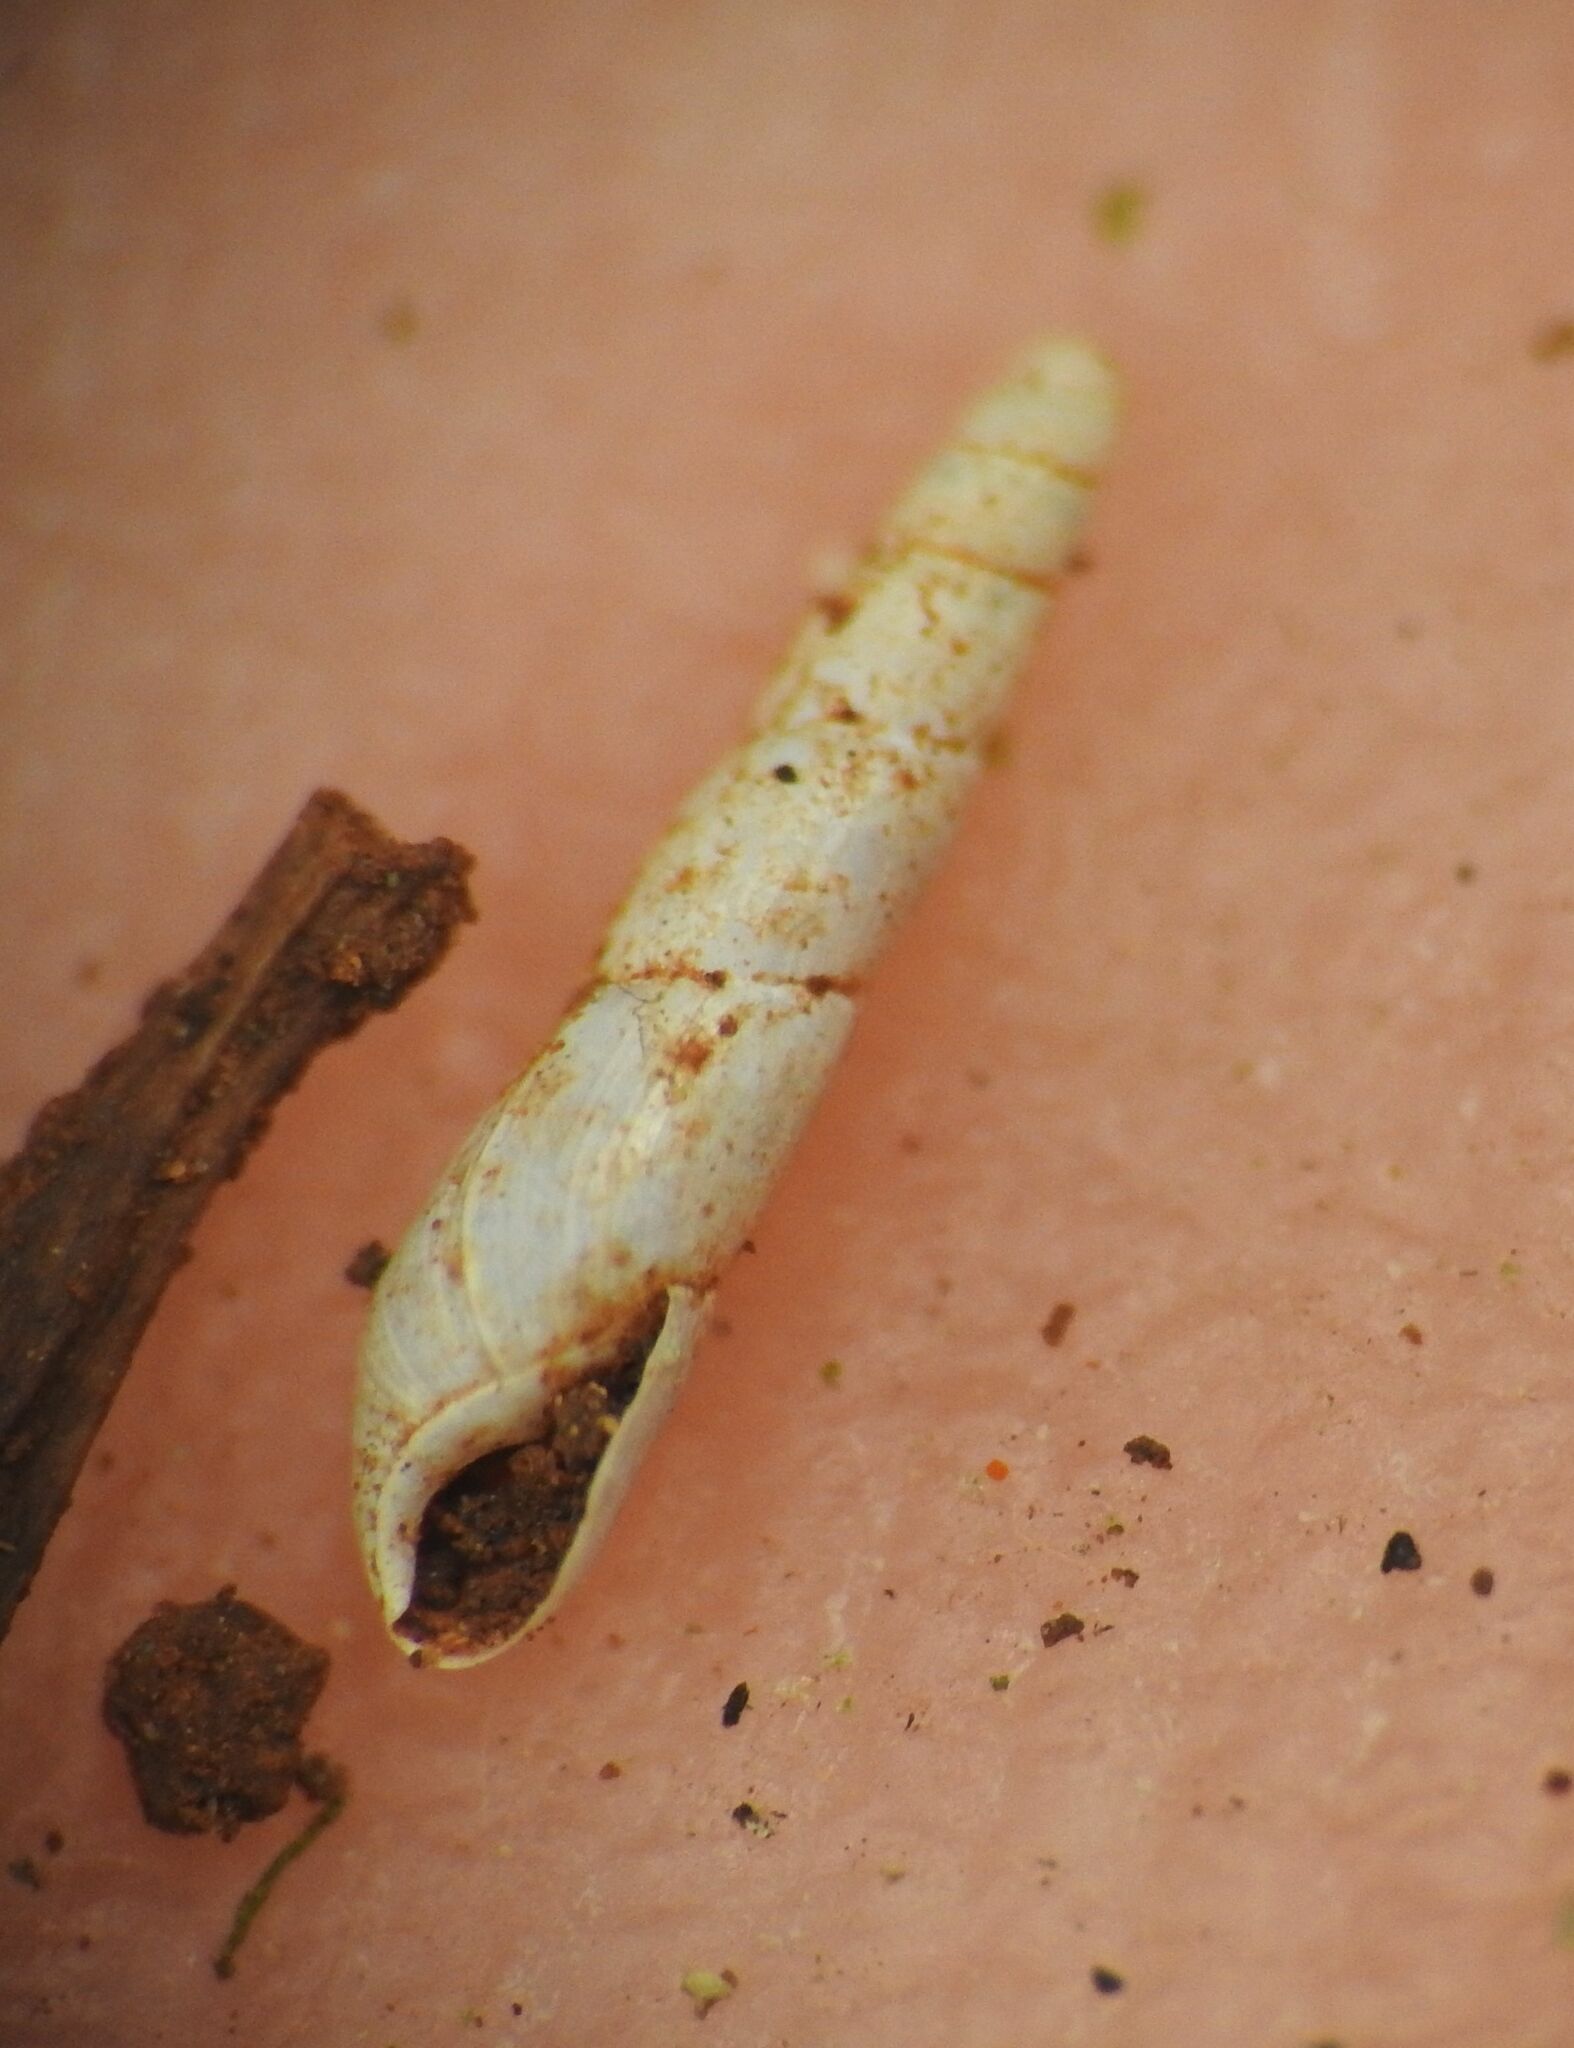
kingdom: Animalia
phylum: Mollusca
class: Gastropoda
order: Stylommatophora
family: Ferussaciidae
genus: Cecilioides
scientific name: Cecilioides acicula
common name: Blind awlsnail
